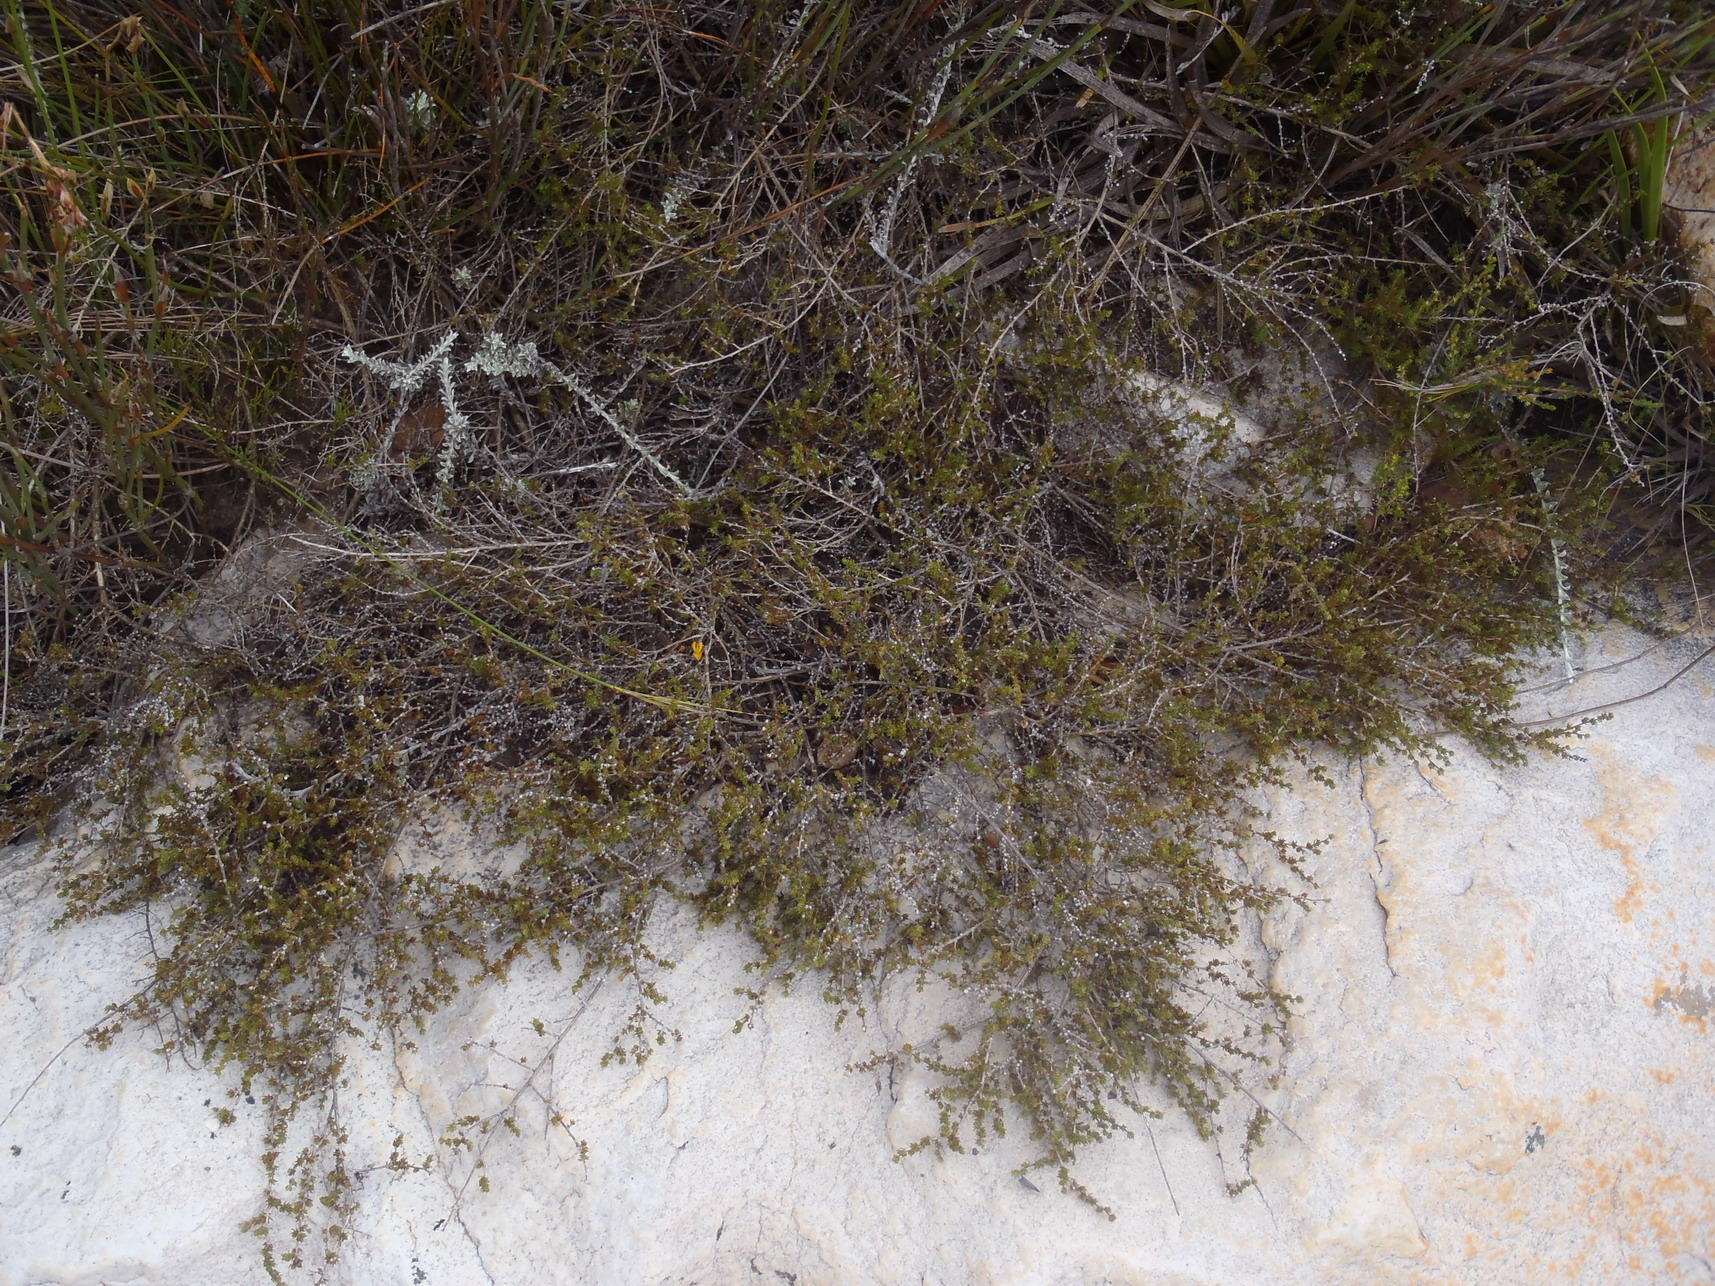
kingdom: Plantae
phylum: Tracheophyta
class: Magnoliopsida
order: Fabales
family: Fabaceae
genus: Aspalathus
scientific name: Aspalathus rubens
